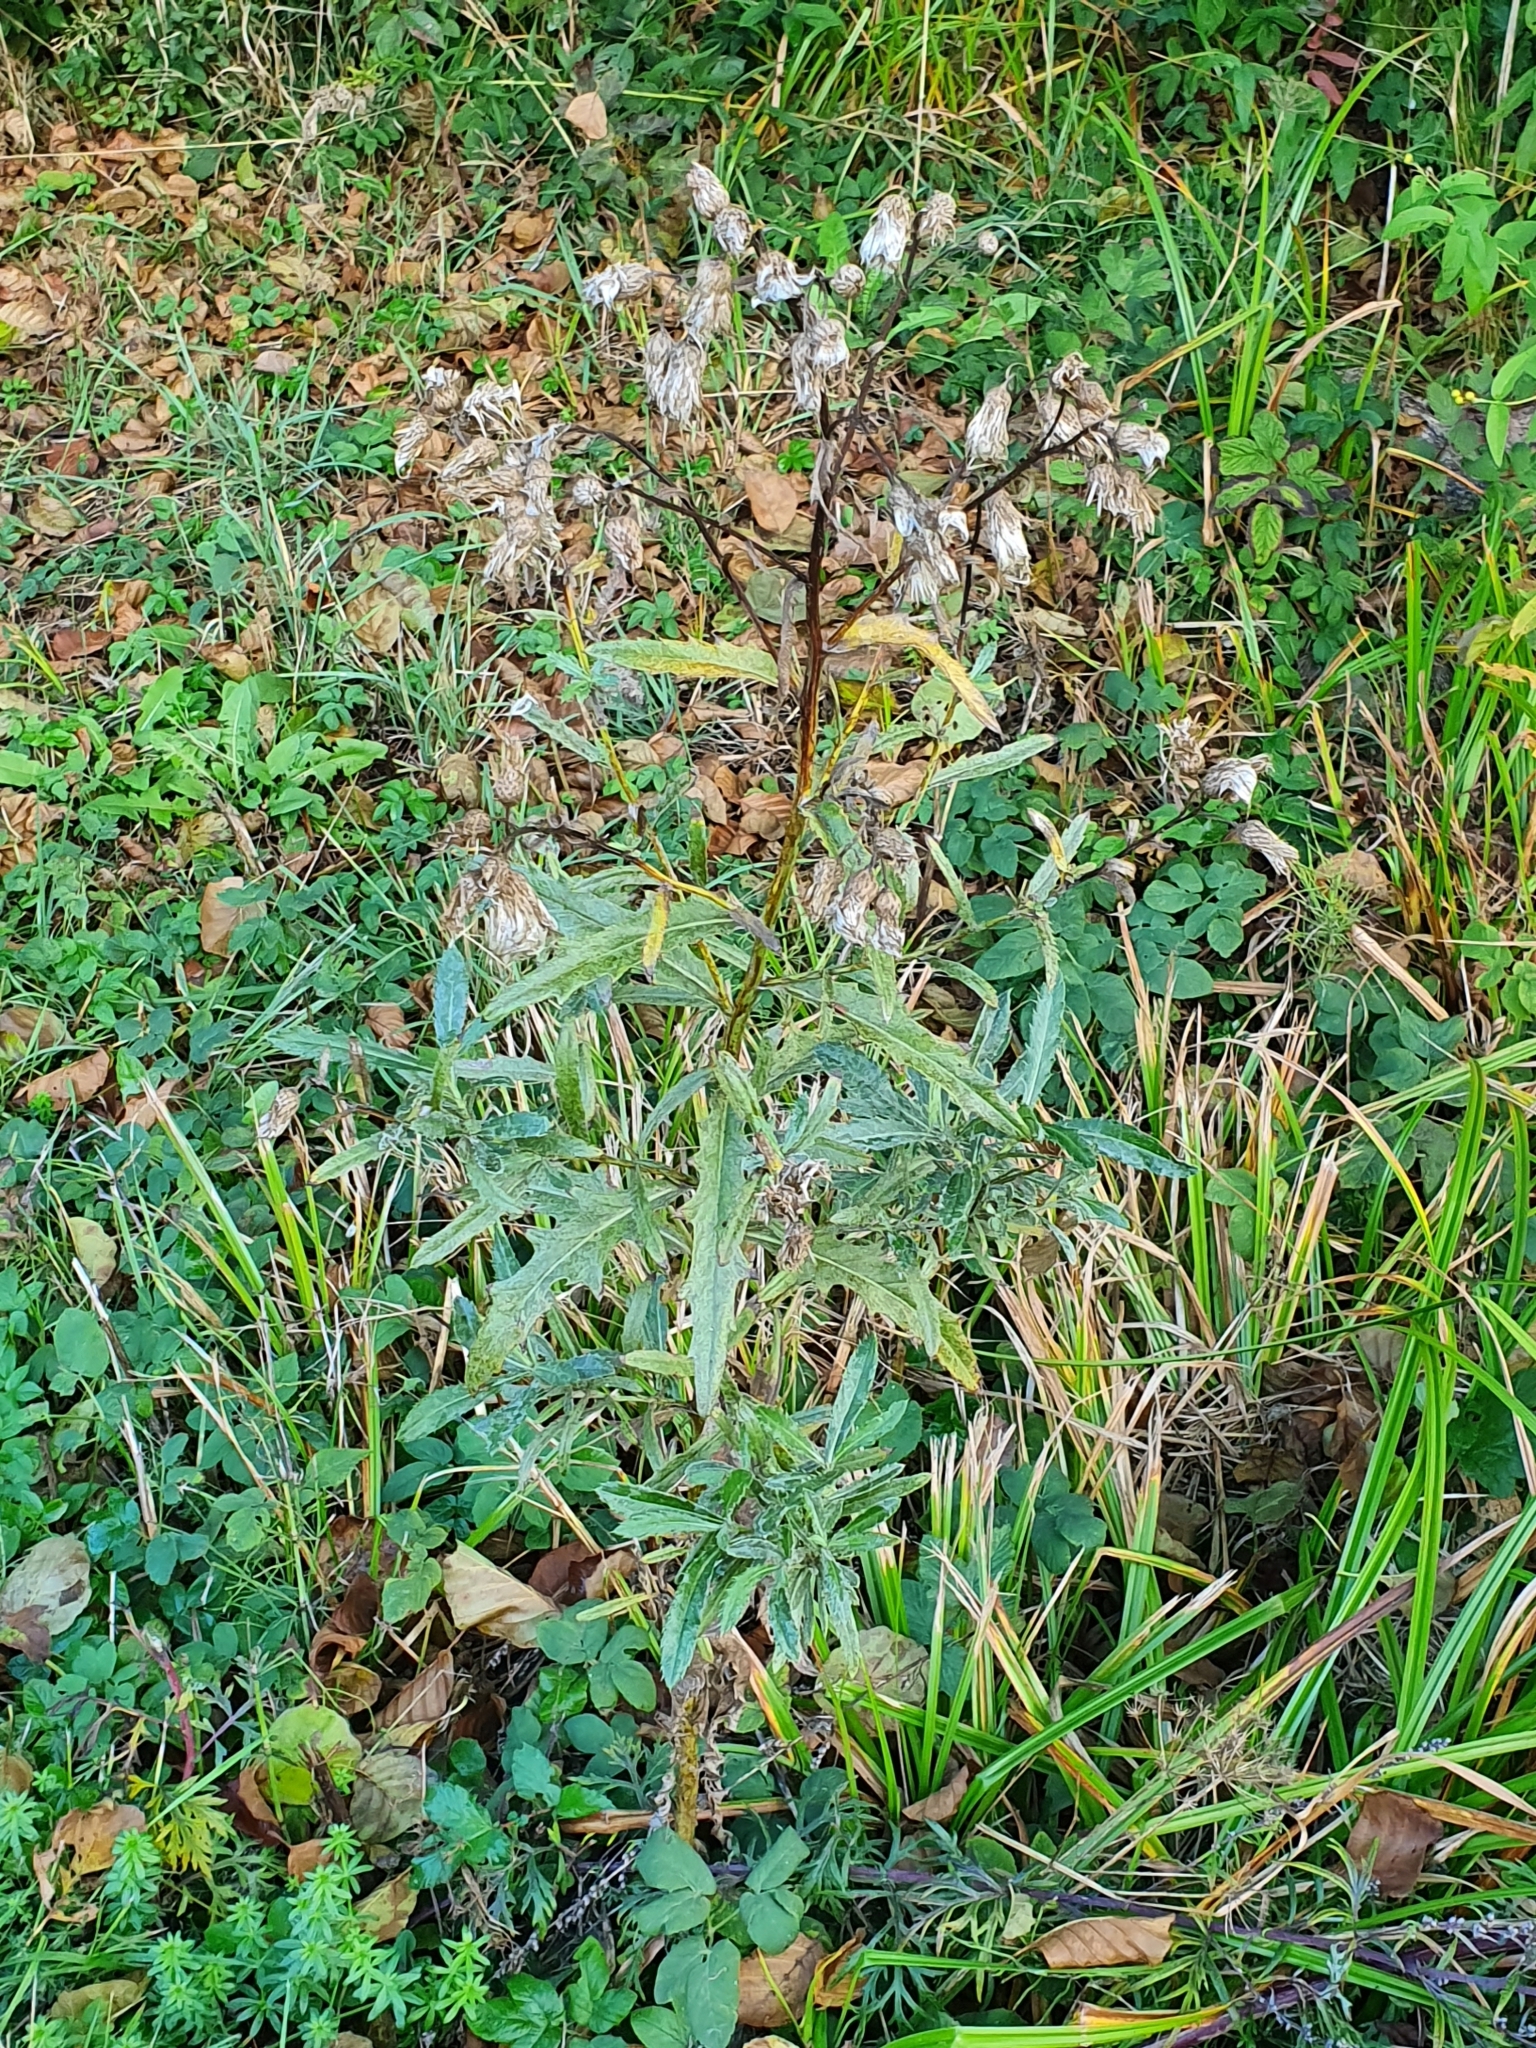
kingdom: Plantae
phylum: Tracheophyta
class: Magnoliopsida
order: Asterales
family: Asteraceae
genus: Cirsium
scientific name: Cirsium arvense
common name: Creeping thistle
